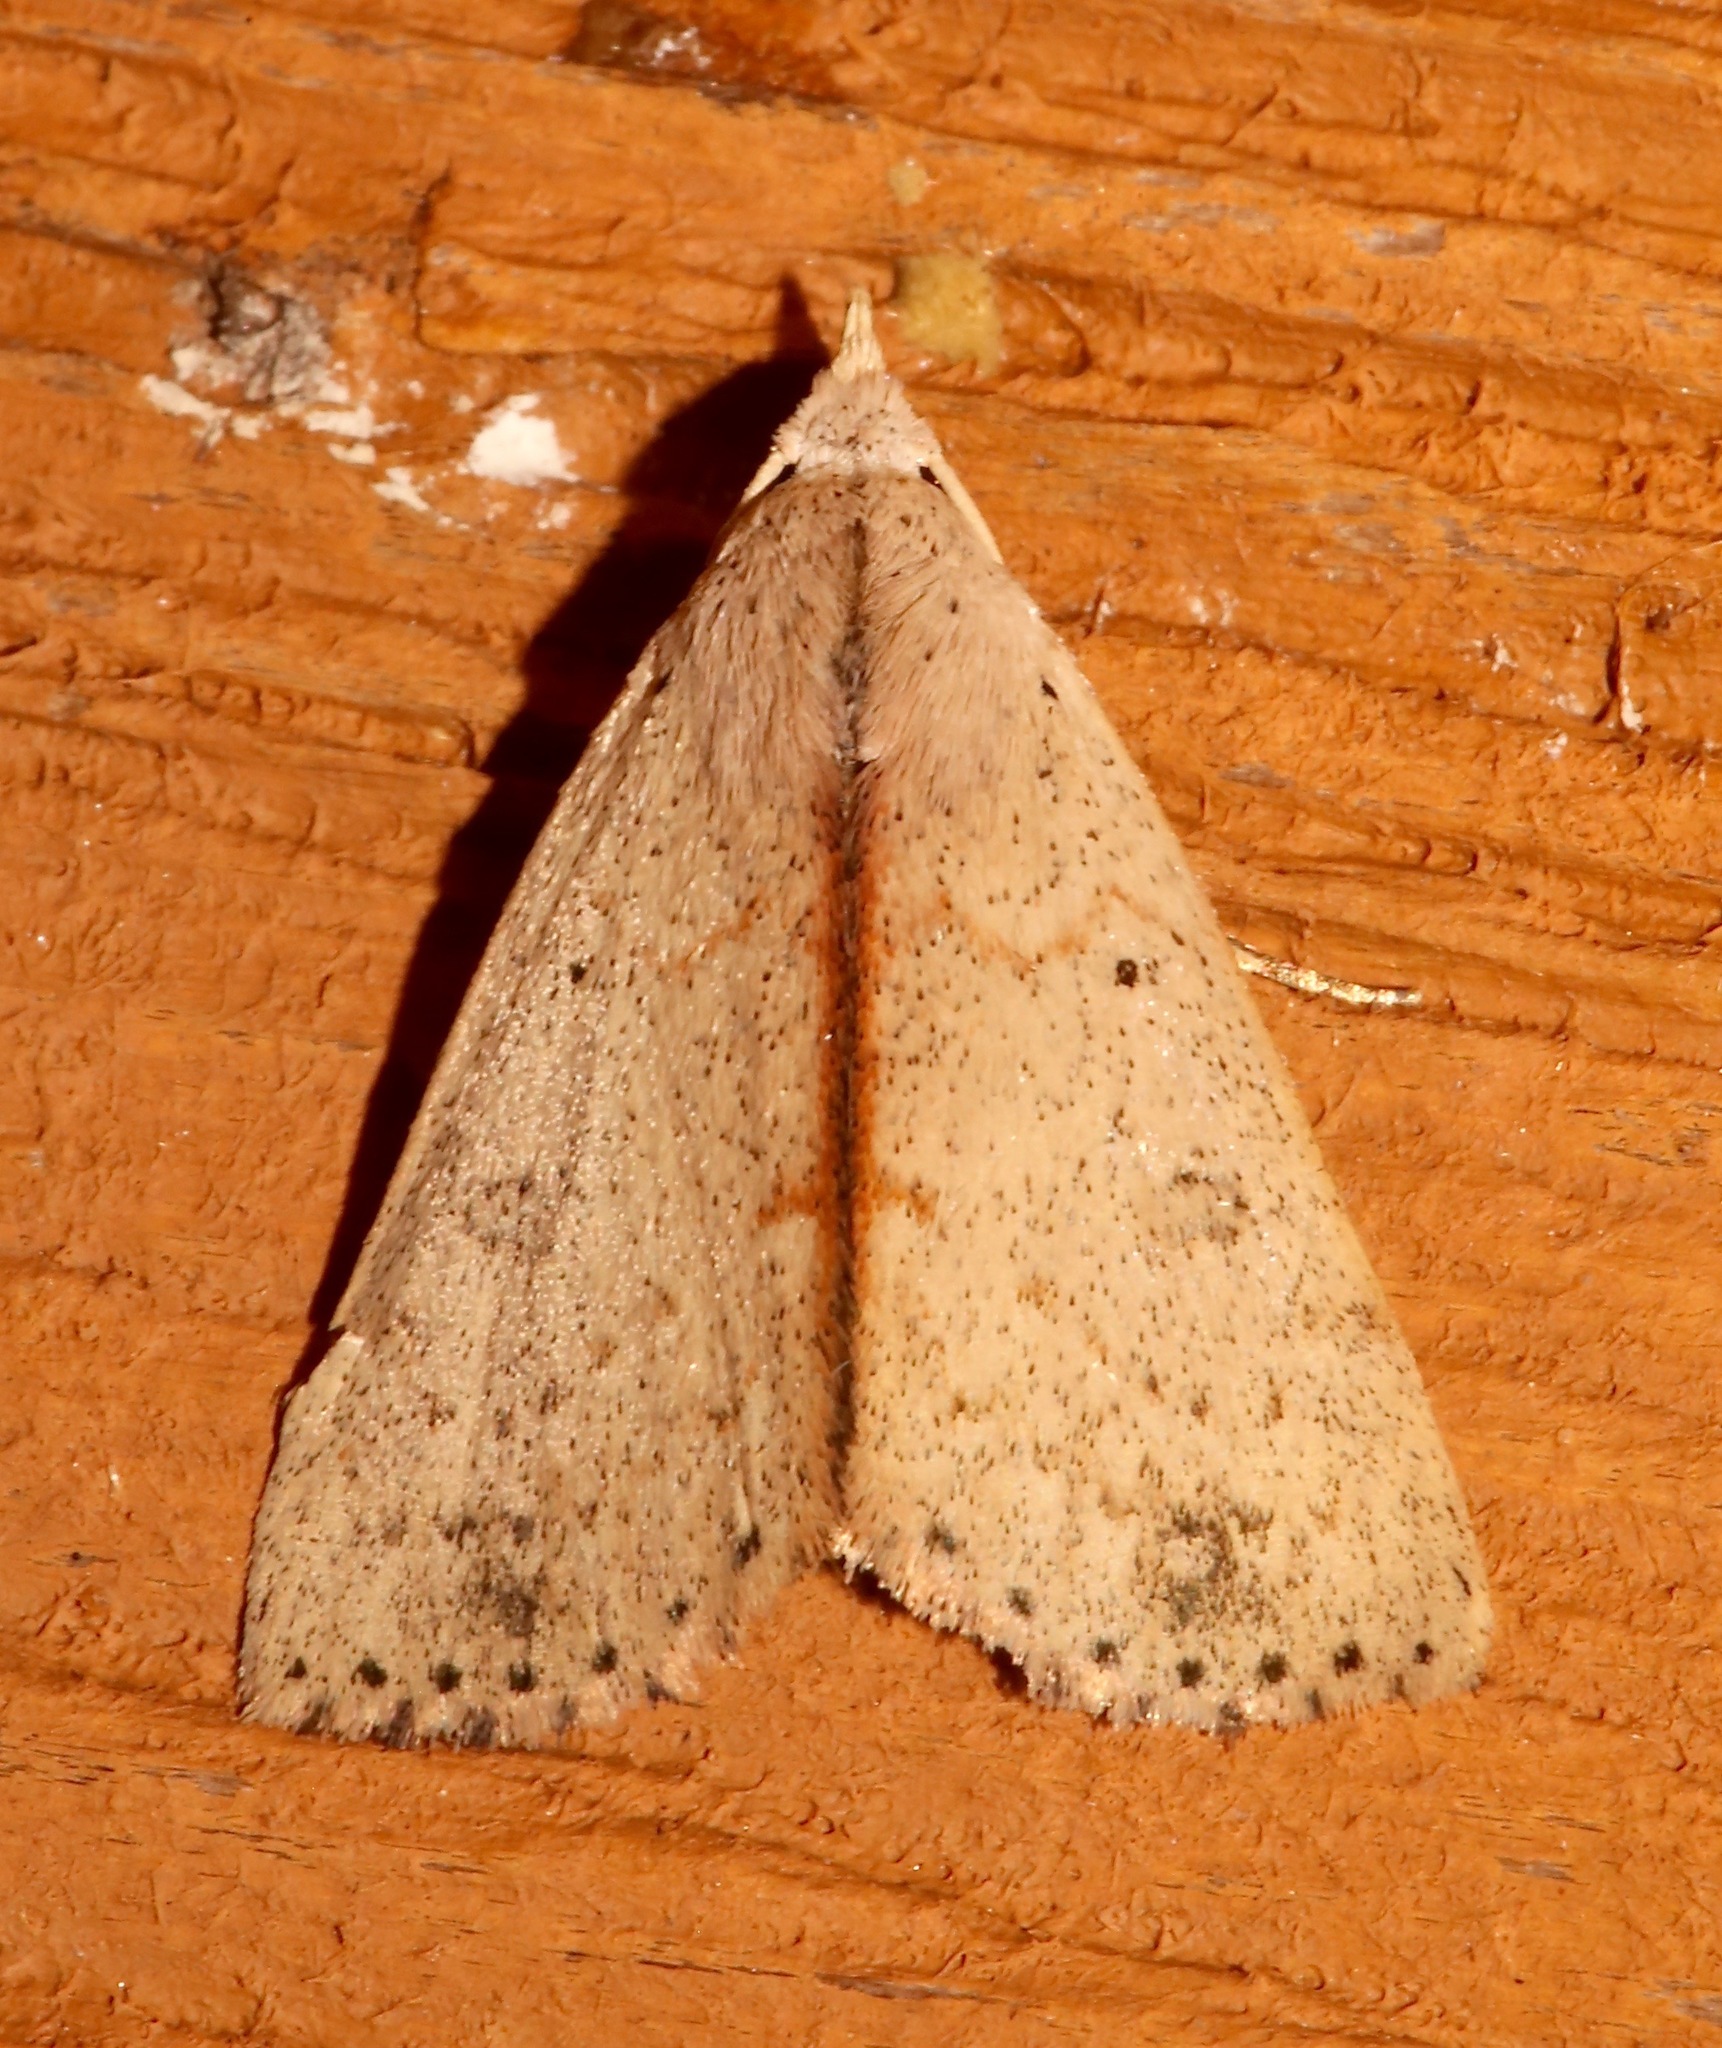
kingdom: Animalia
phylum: Arthropoda
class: Insecta
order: Lepidoptera
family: Erebidae
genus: Scolecocampa
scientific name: Scolecocampa liburna
